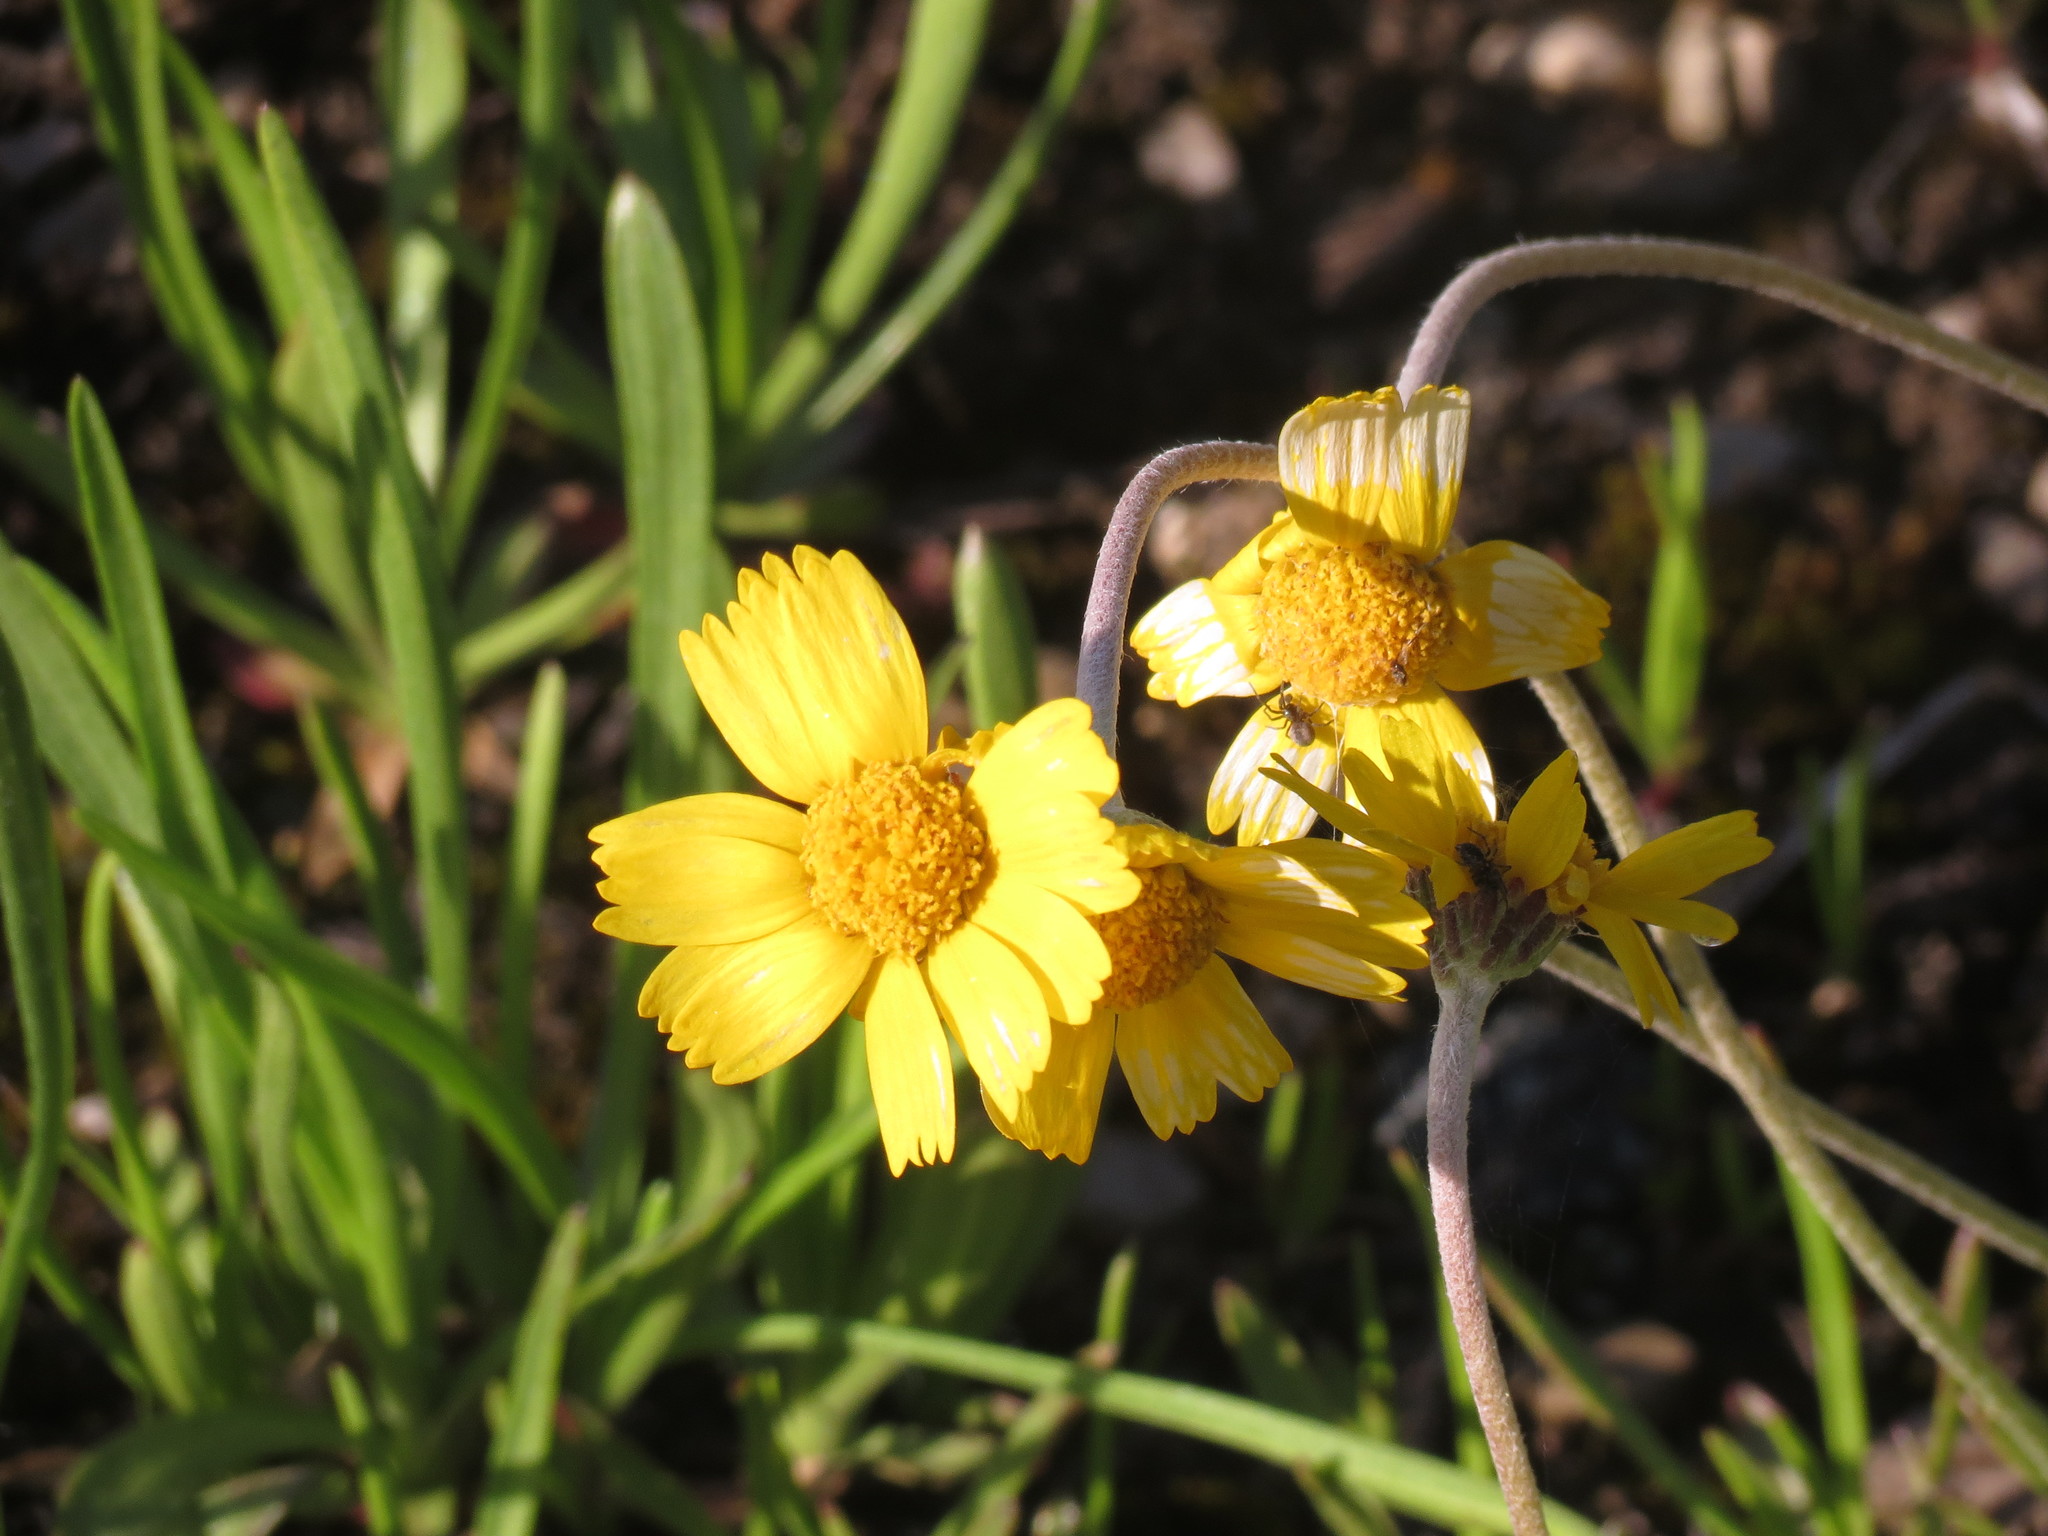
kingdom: Plantae
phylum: Tracheophyta
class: Magnoliopsida
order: Asterales
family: Asteraceae
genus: Tetraneuris
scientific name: Tetraneuris herbacea
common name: Lakeside daisy
